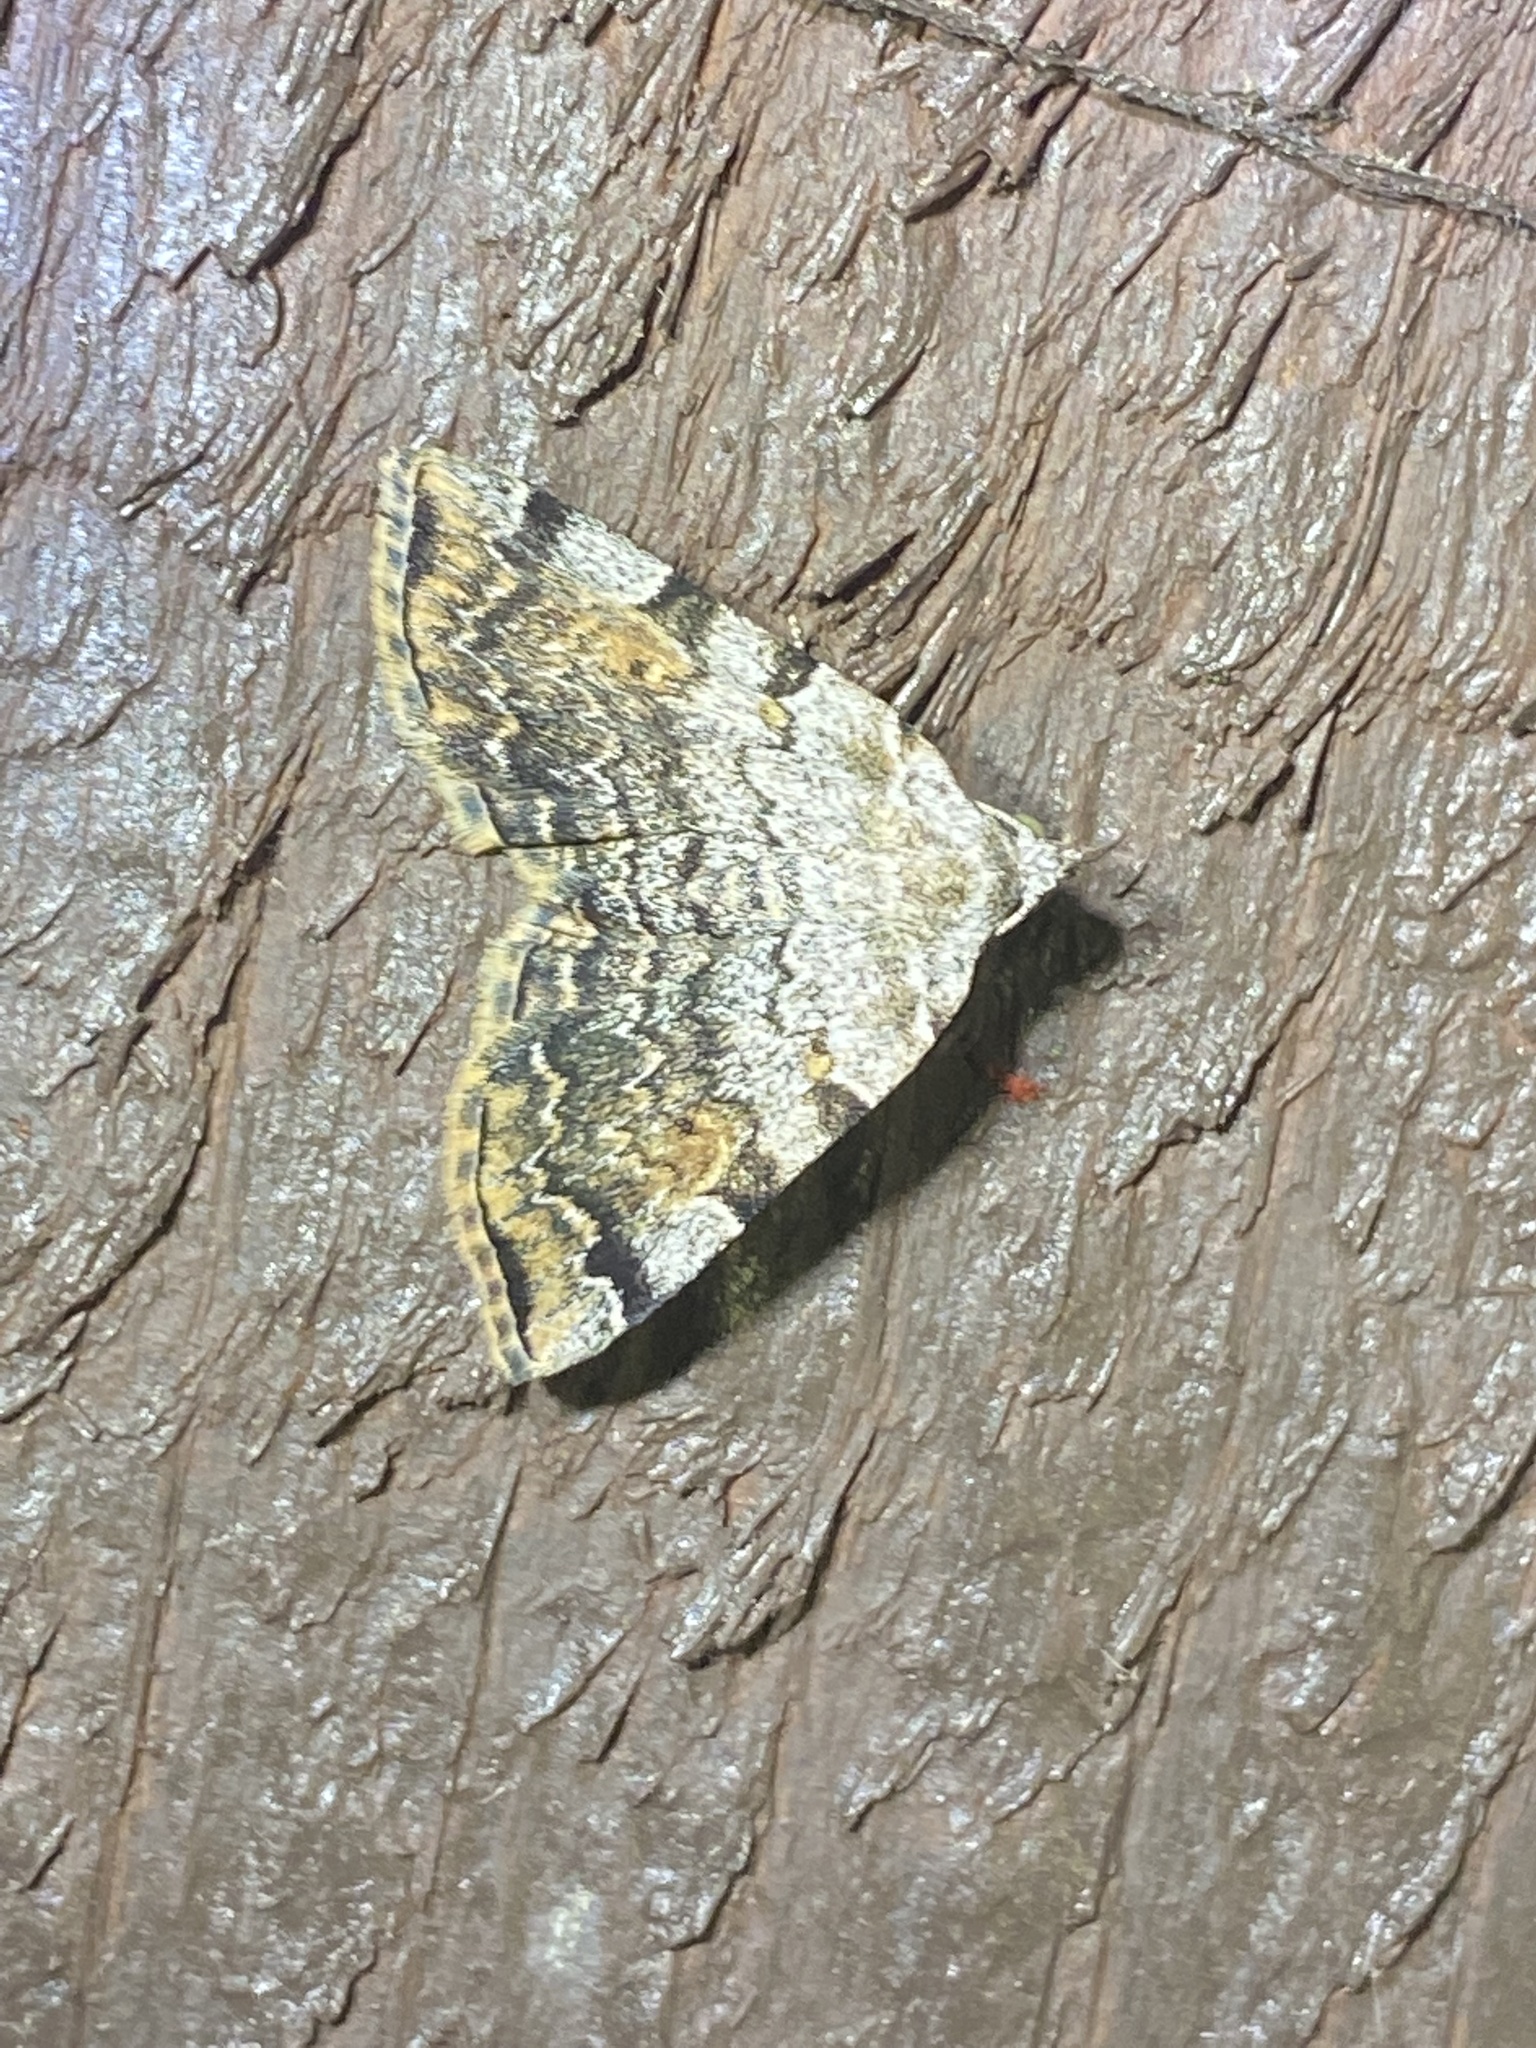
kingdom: Animalia
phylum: Arthropoda
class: Insecta
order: Lepidoptera
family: Erebidae
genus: Idia
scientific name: Idia americalis
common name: American idia moth
